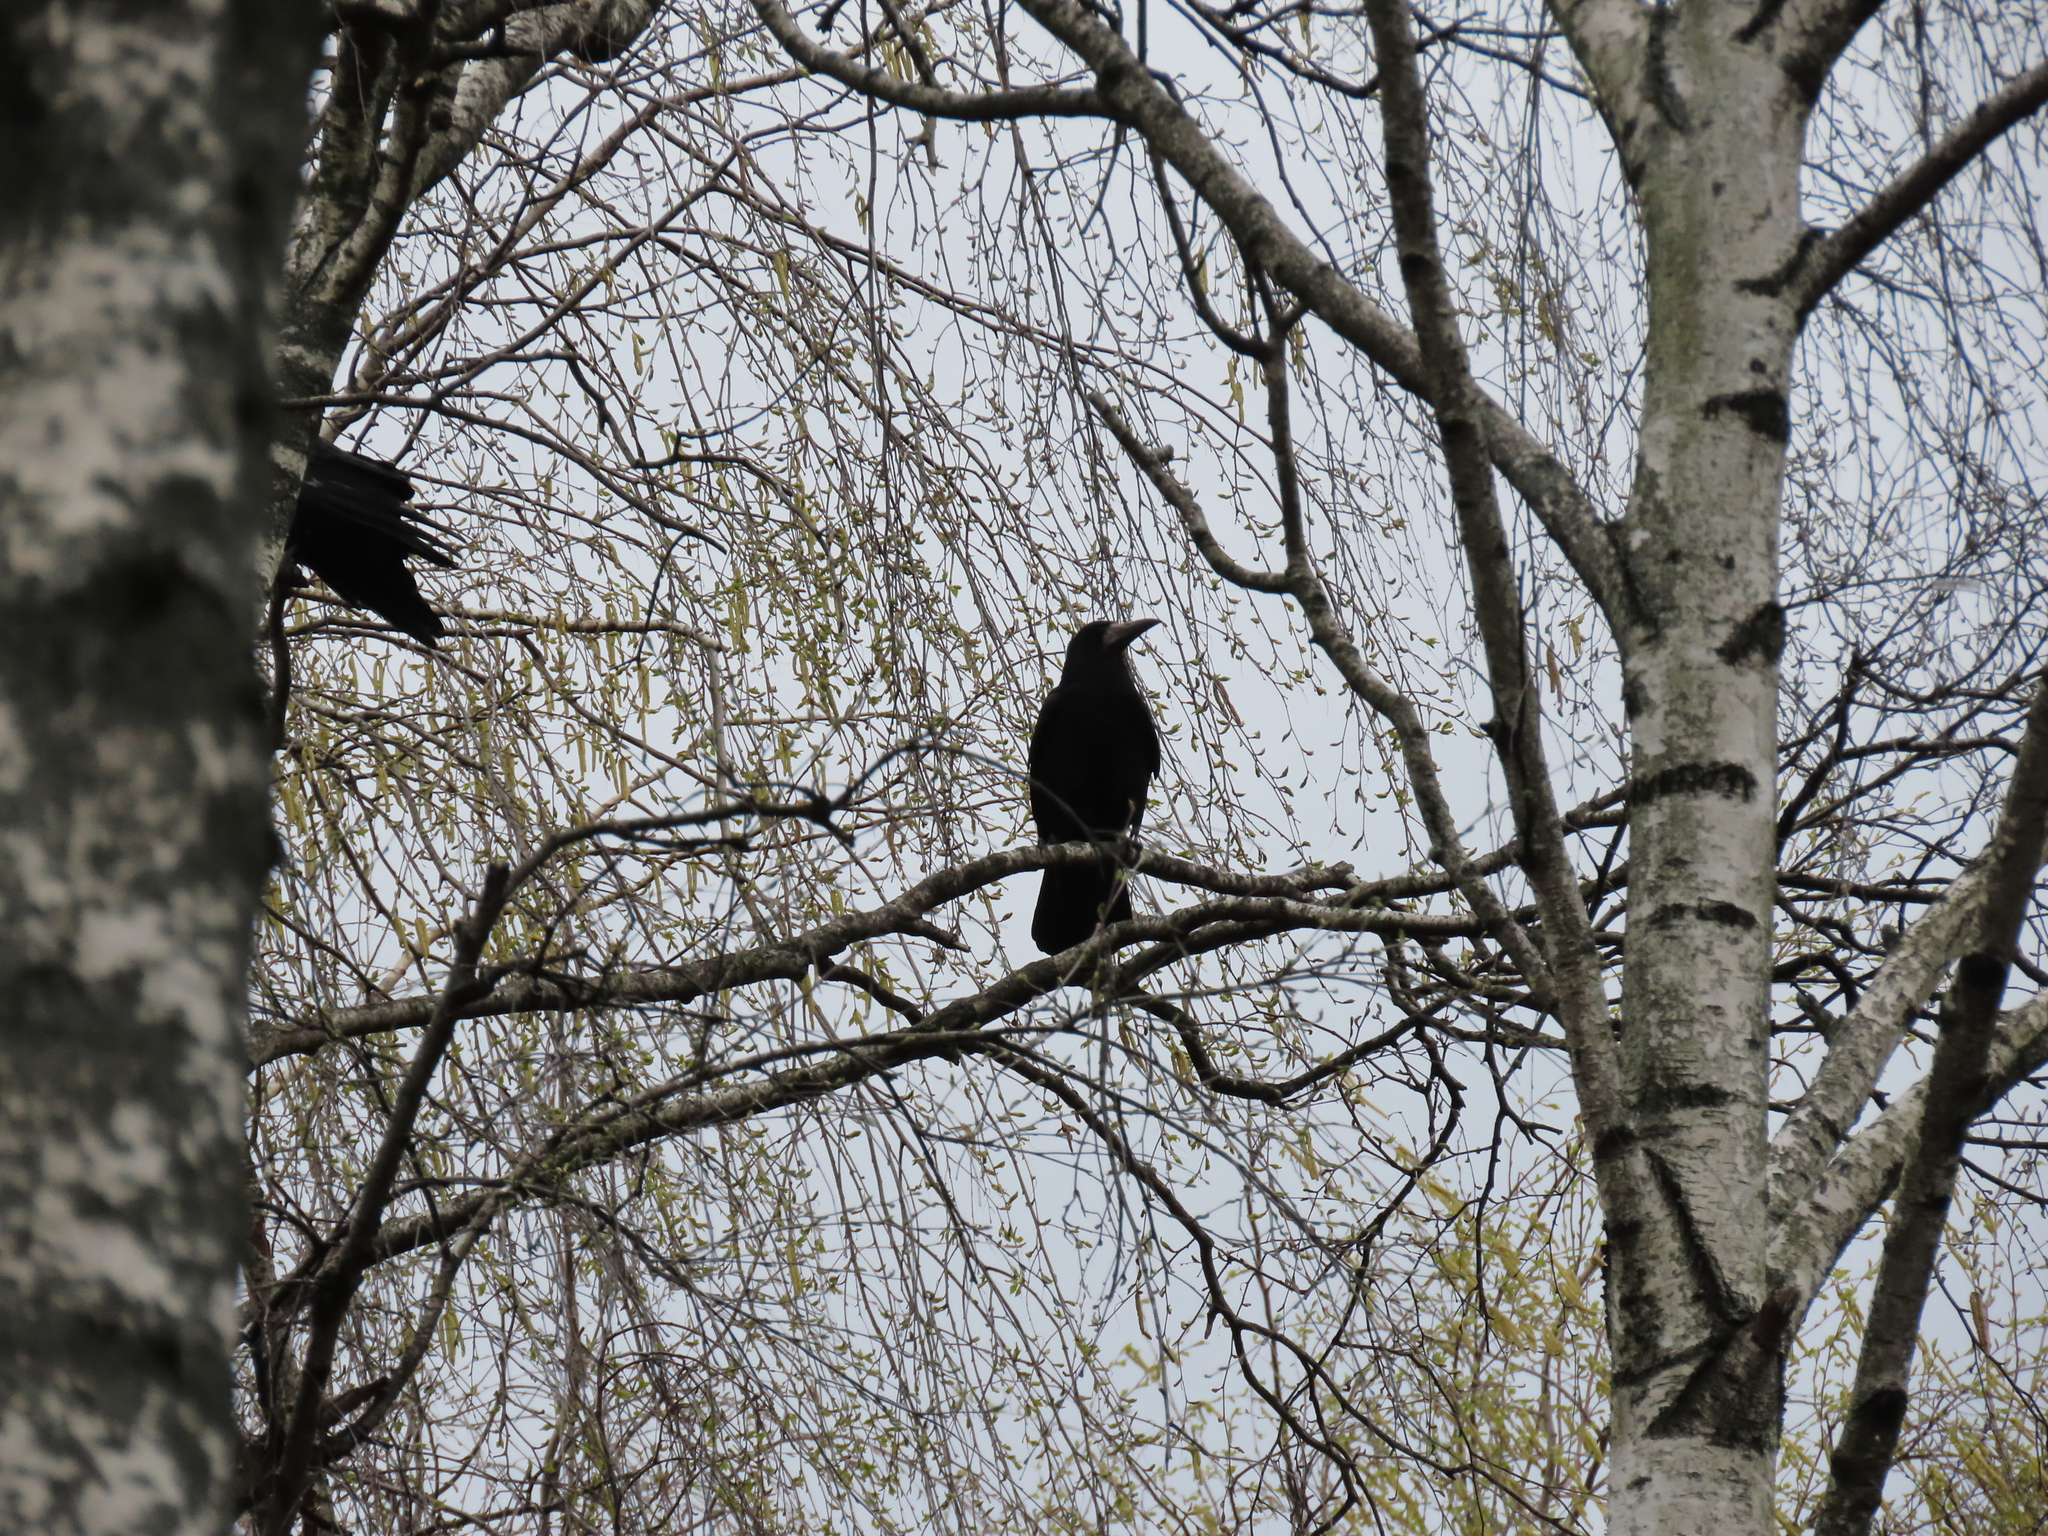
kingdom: Animalia
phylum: Chordata
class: Aves
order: Passeriformes
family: Corvidae
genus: Corvus
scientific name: Corvus frugilegus
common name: Rook
